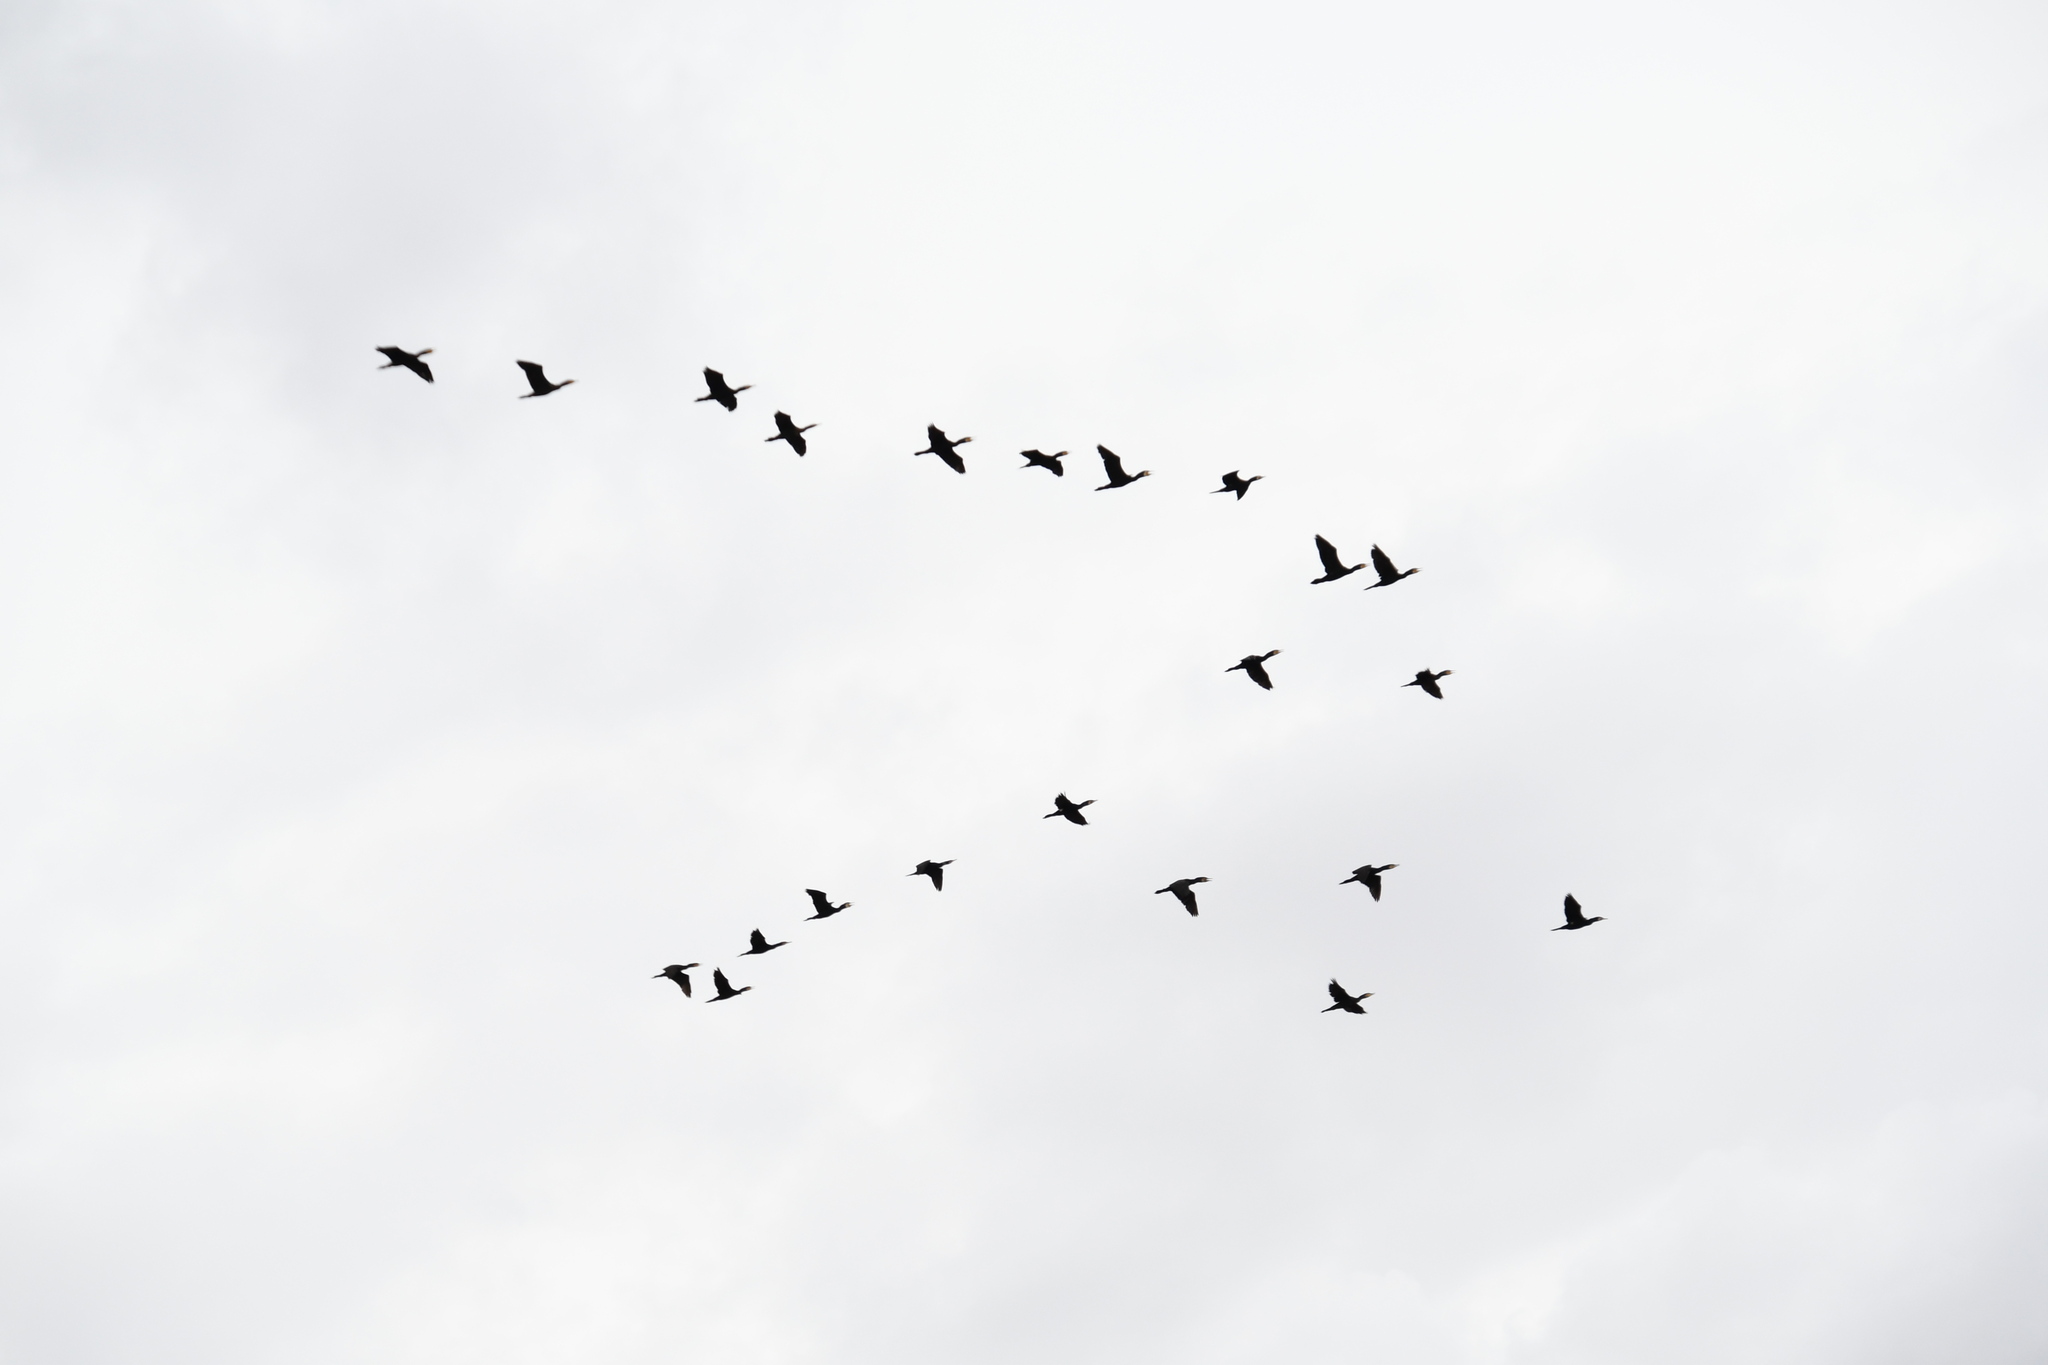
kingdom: Animalia
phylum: Chordata
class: Aves
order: Suliformes
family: Phalacrocoracidae
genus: Phalacrocorax
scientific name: Phalacrocorax carbo
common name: Great cormorant
